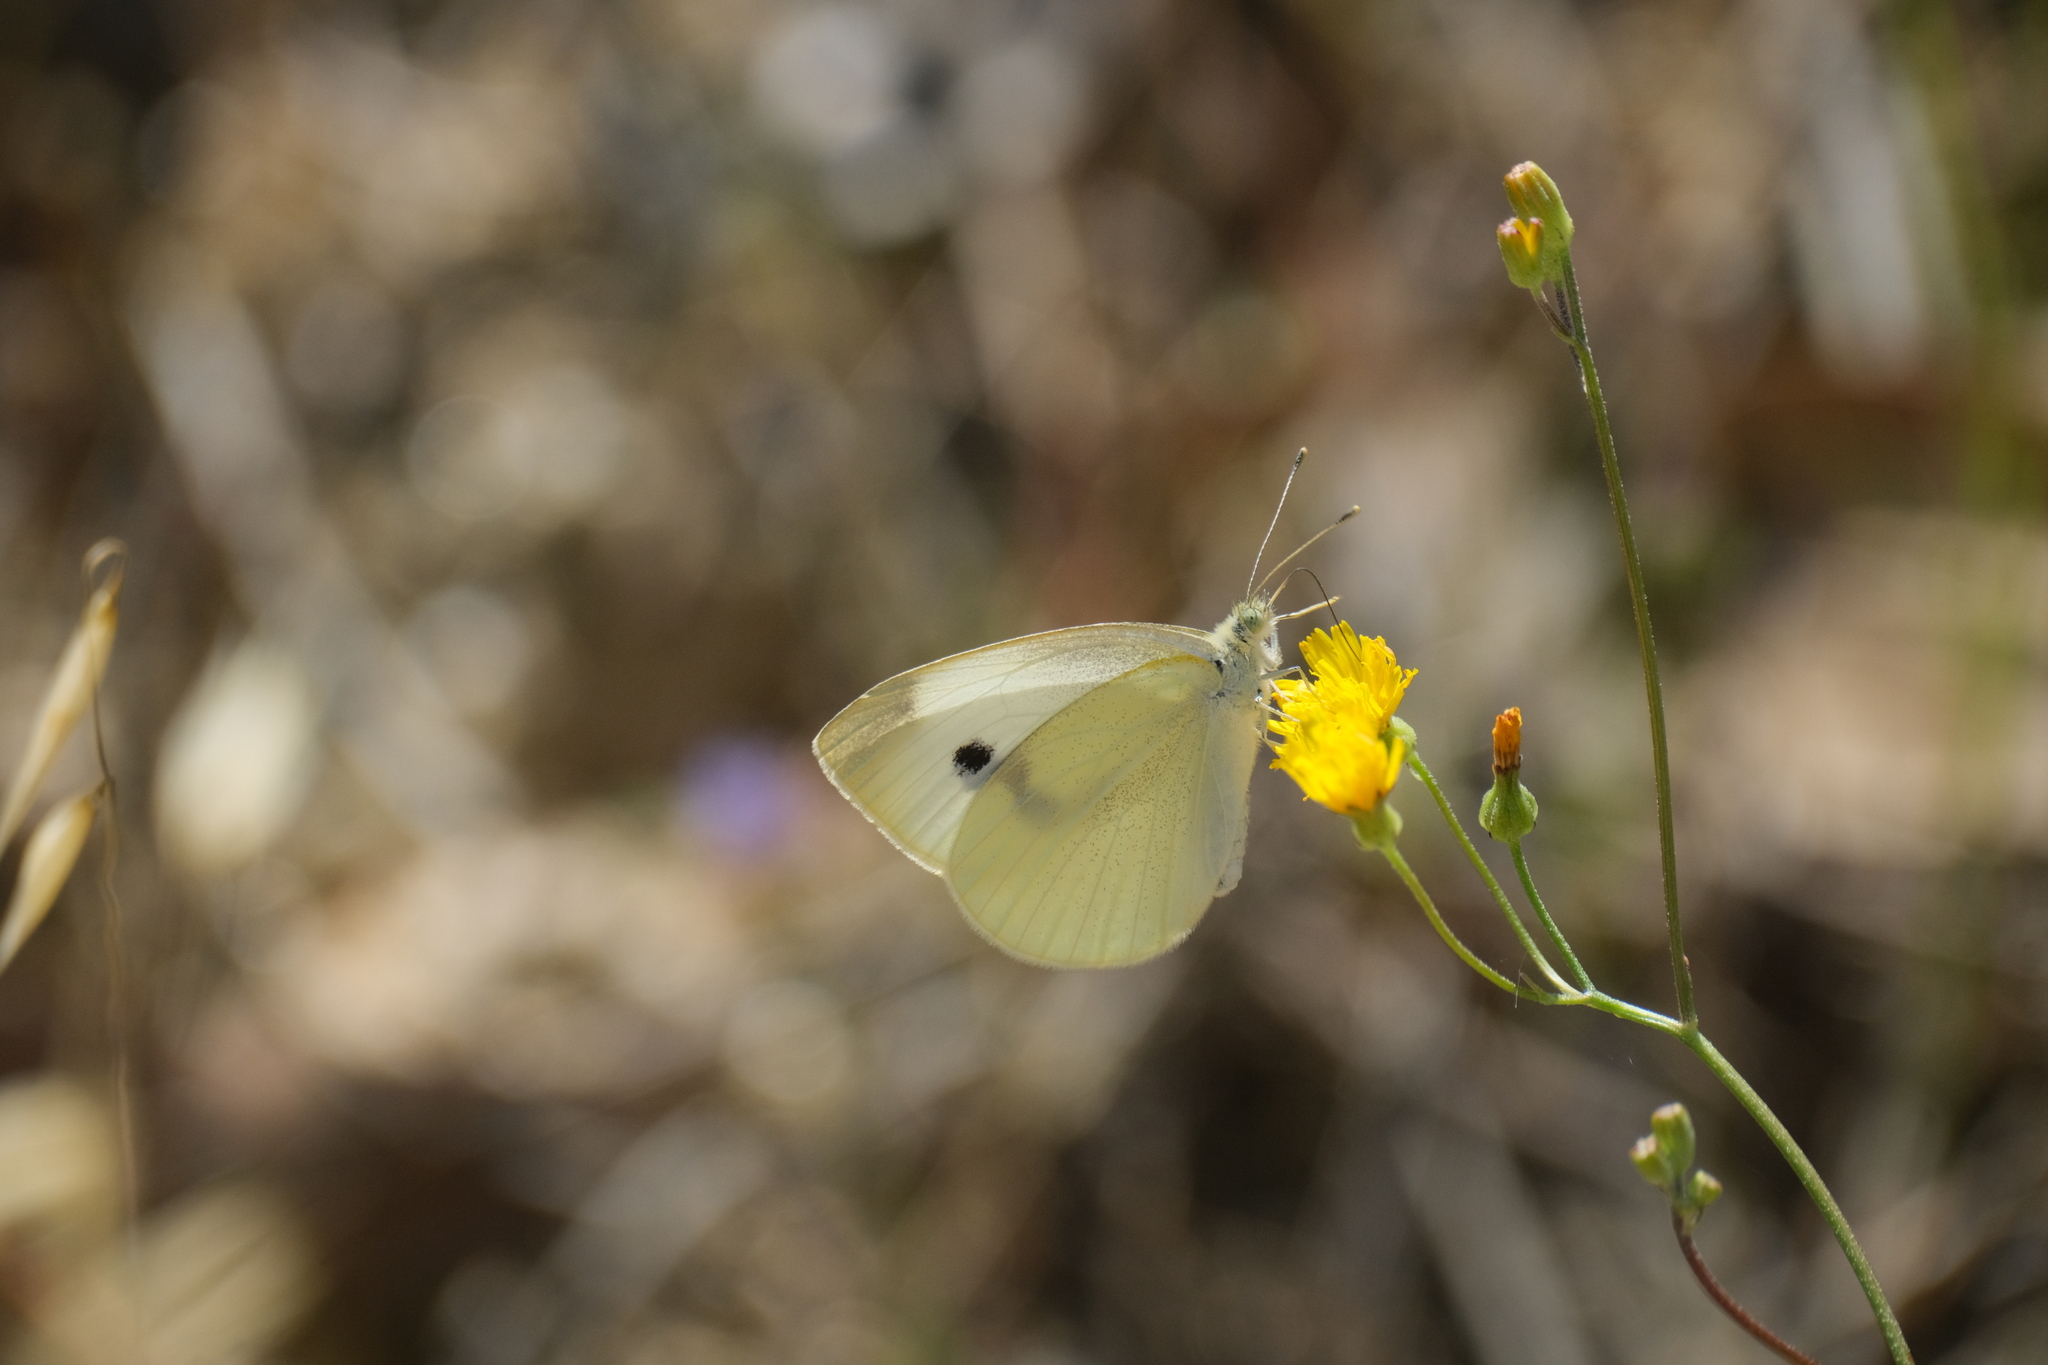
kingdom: Animalia
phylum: Arthropoda
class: Insecta
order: Lepidoptera
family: Pieridae
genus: Pieris
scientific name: Pieris rapae
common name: Small white
